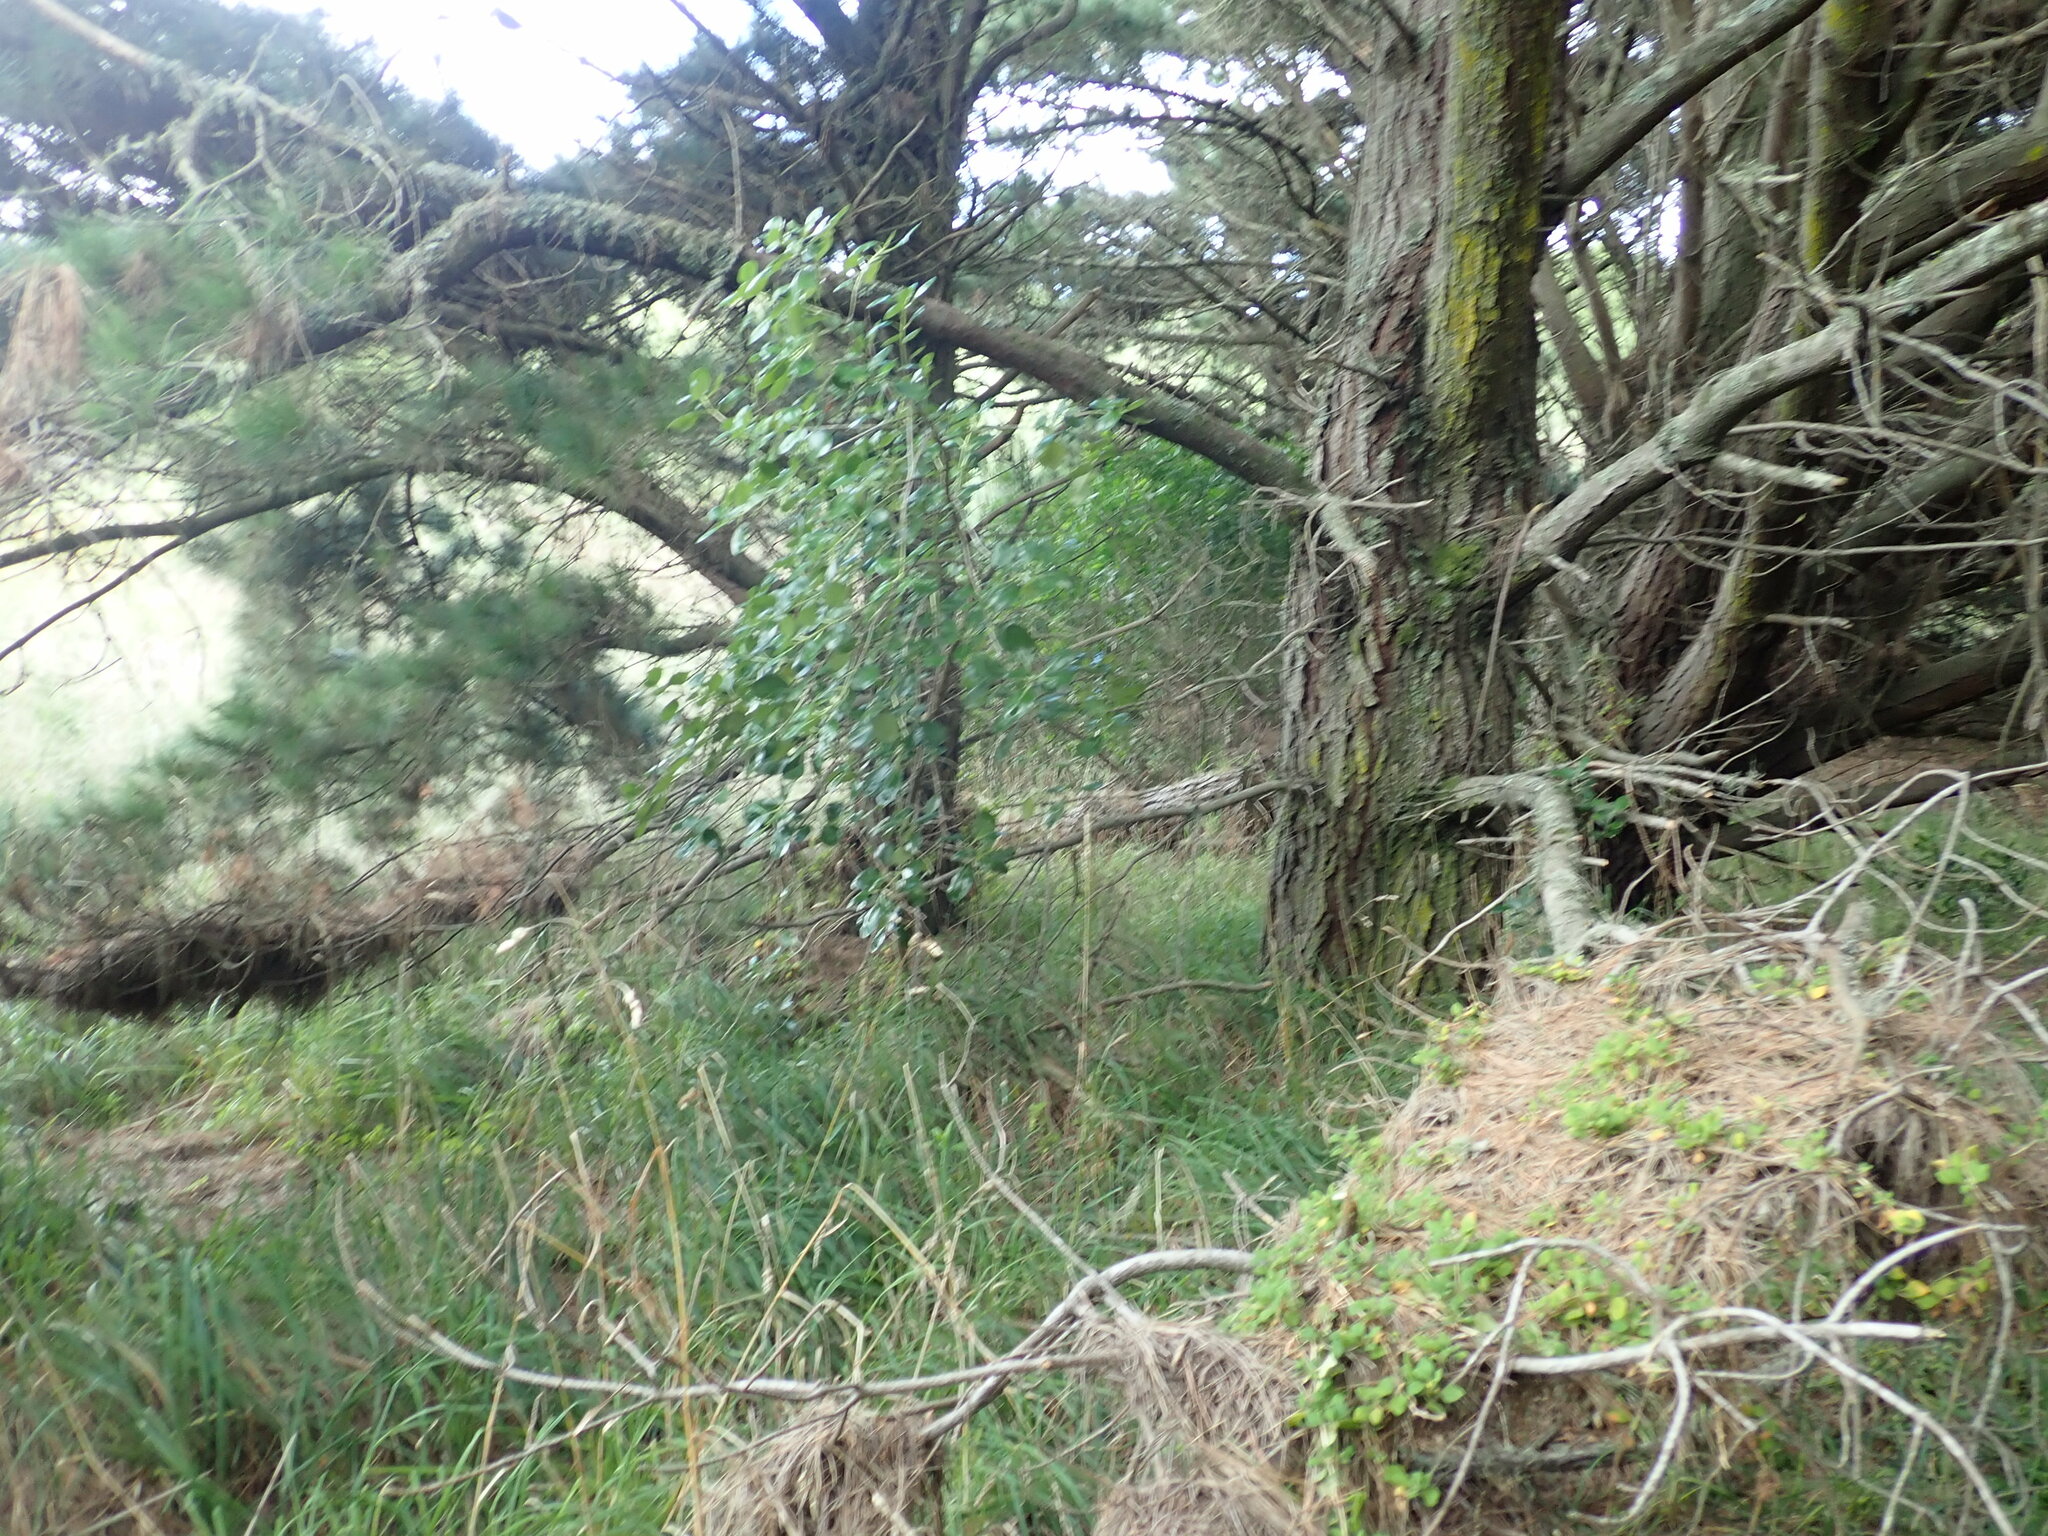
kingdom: Plantae
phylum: Tracheophyta
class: Magnoliopsida
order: Gentianales
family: Rubiaceae
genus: Coprosma
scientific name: Coprosma repens
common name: Tree bedstraw
